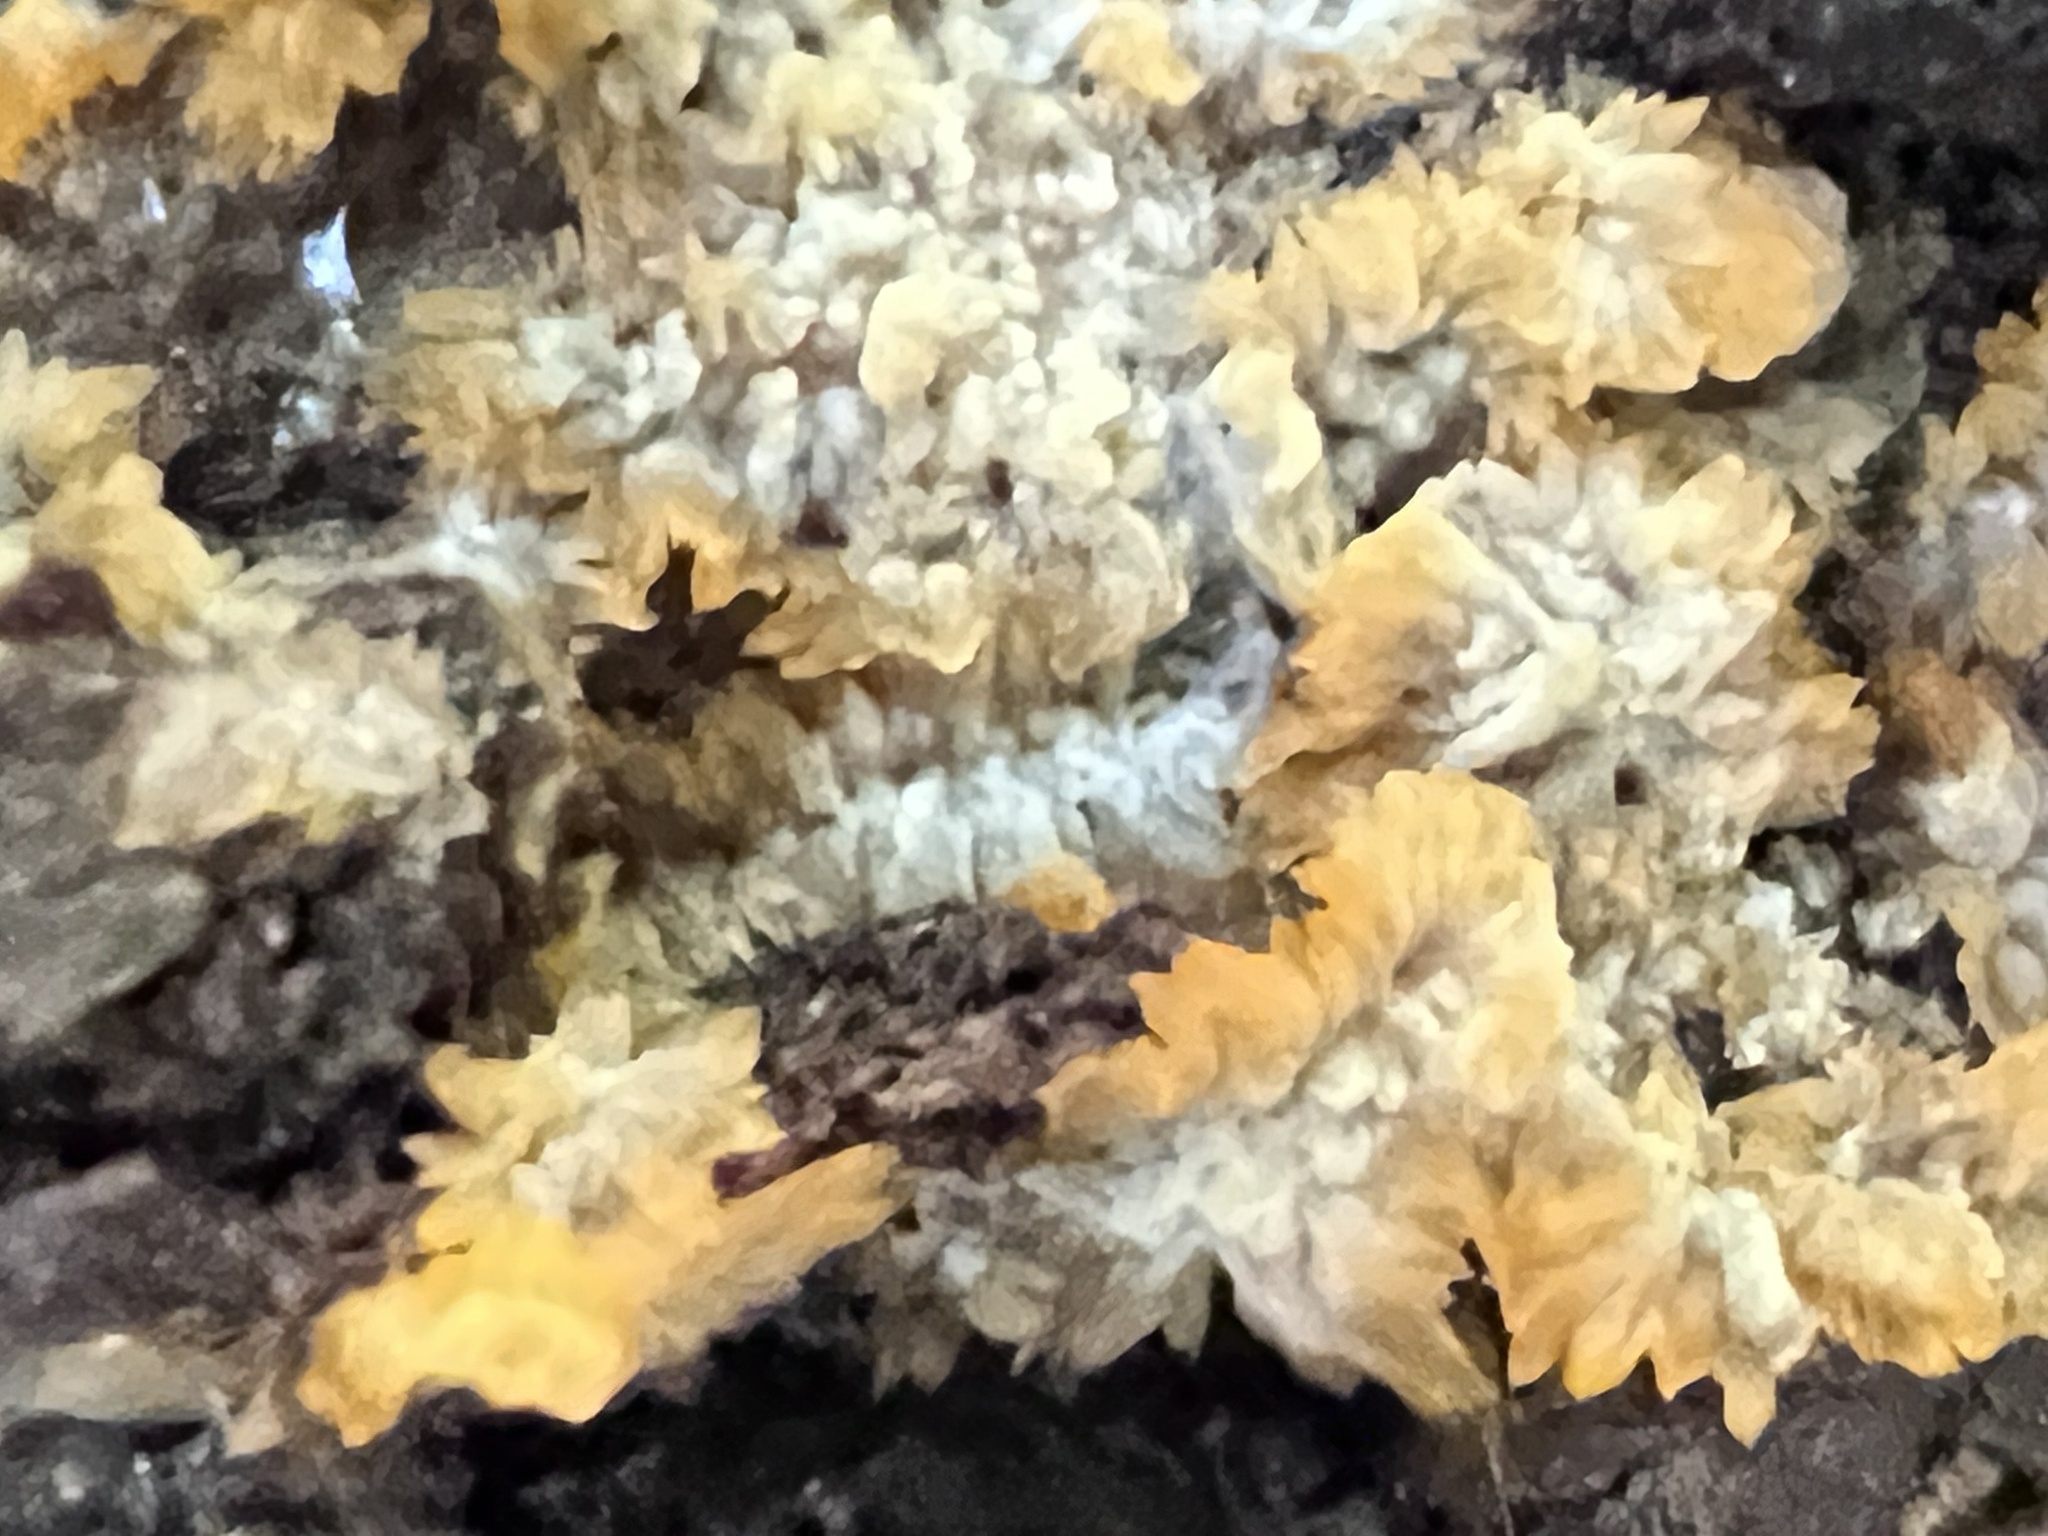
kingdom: Fungi
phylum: Basidiomycota
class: Agaricomycetes
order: Polyporales
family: Meruliaceae
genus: Phlebia
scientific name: Phlebia radiata
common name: Wrinkled crust
